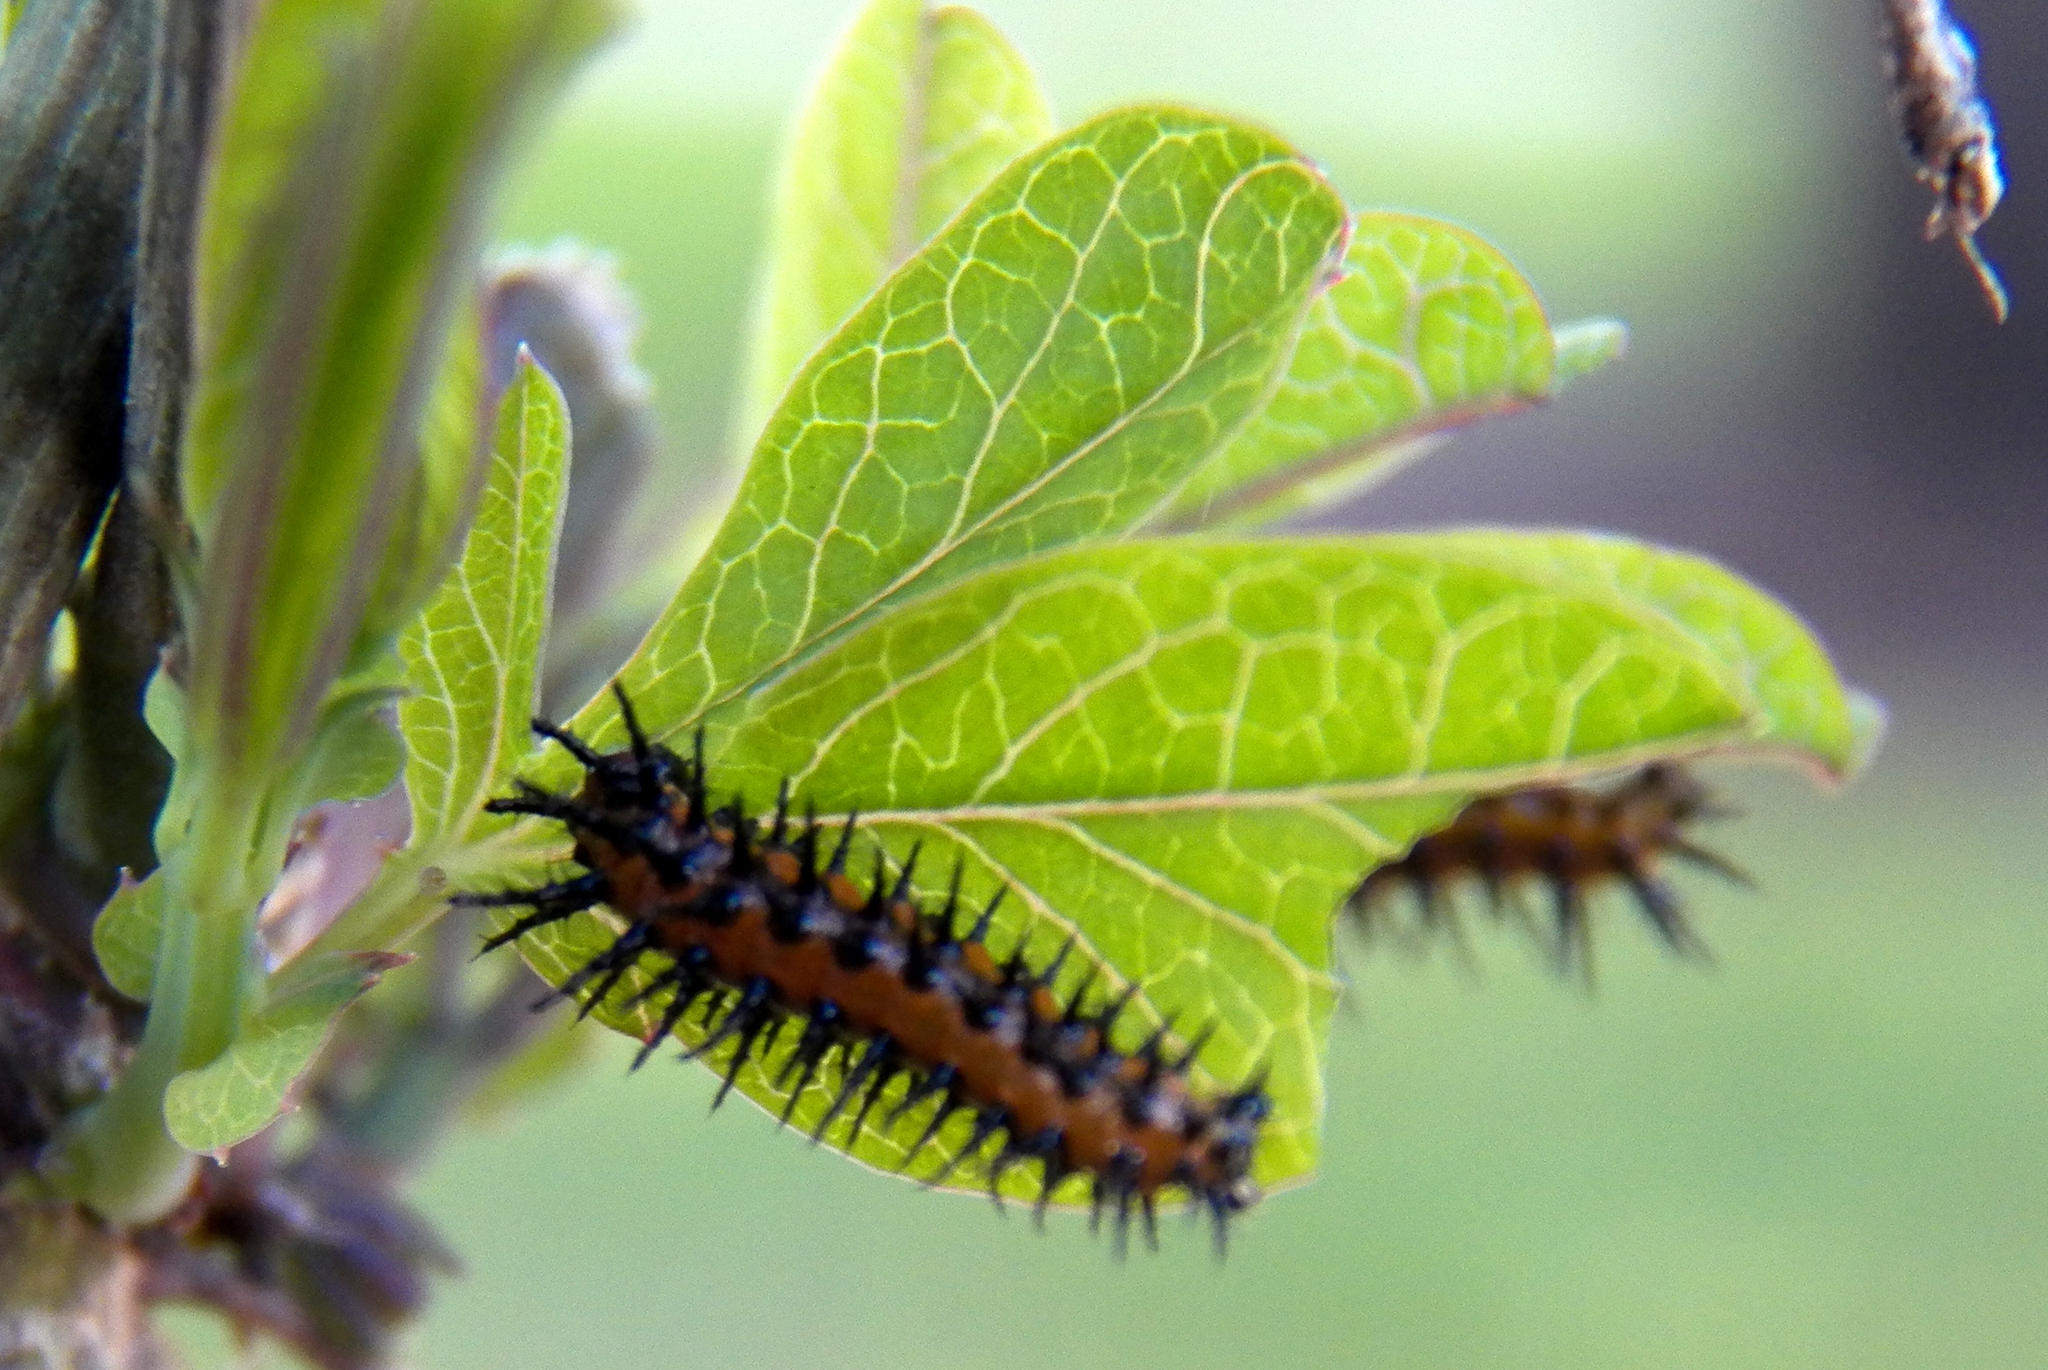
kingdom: Animalia
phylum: Arthropoda
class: Insecta
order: Lepidoptera
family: Nymphalidae
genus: Dione
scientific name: Dione vanillae
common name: Gulf fritillary
